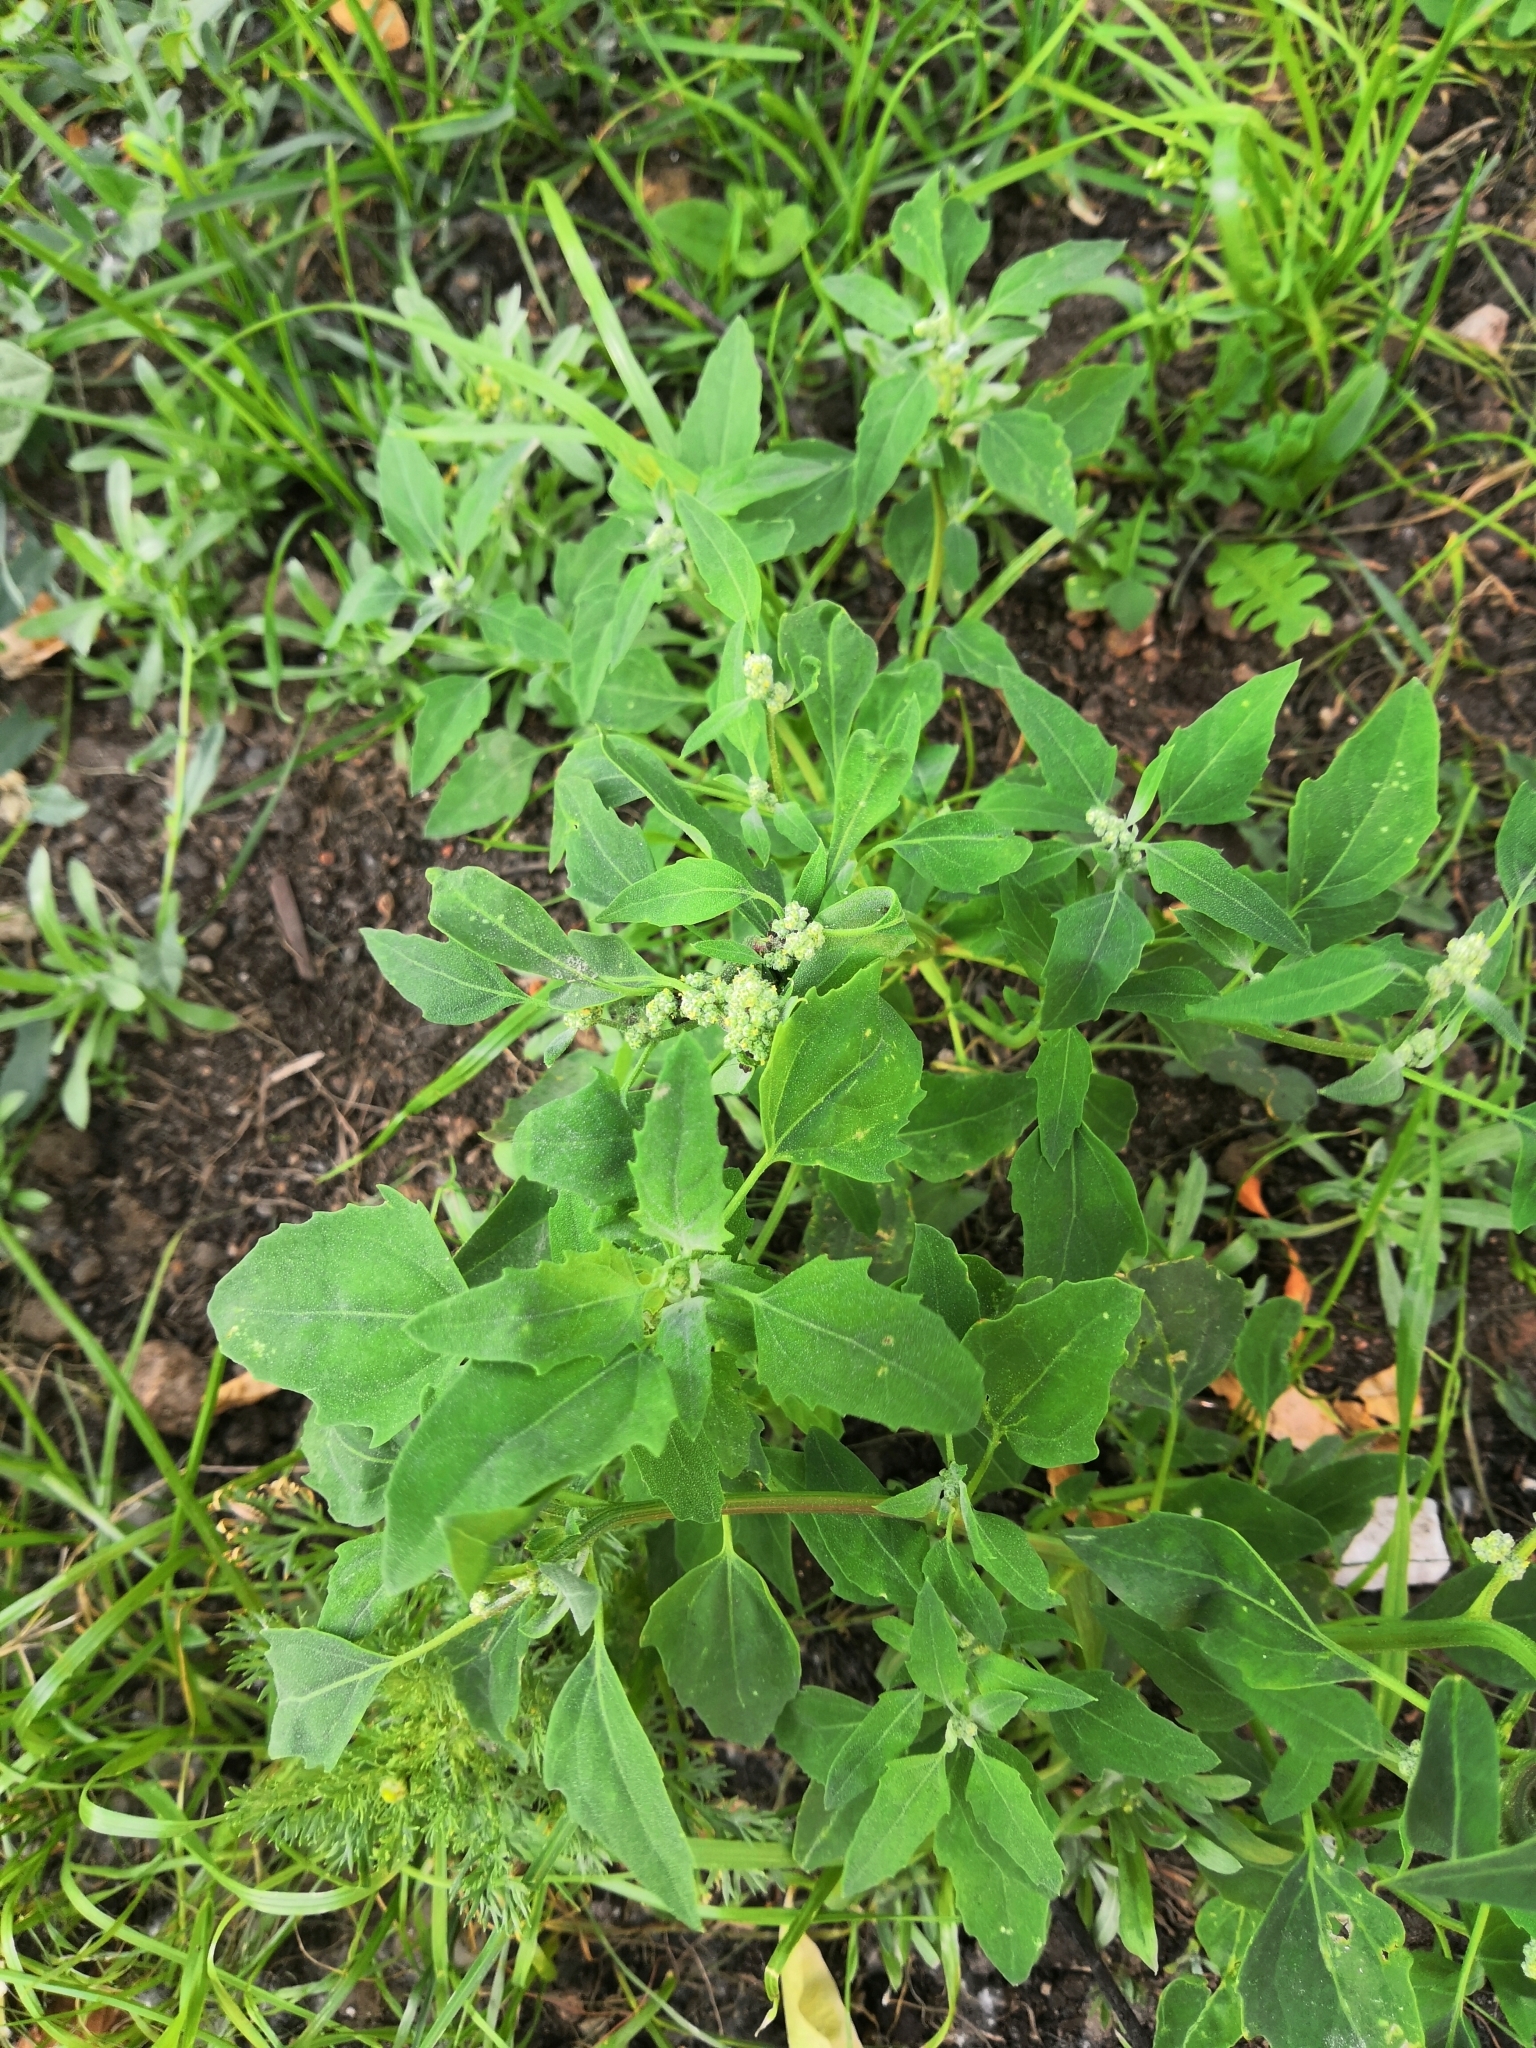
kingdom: Plantae
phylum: Tracheophyta
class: Magnoliopsida
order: Caryophyllales
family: Amaranthaceae
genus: Chenopodium
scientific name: Chenopodium album
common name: Fat-hen
